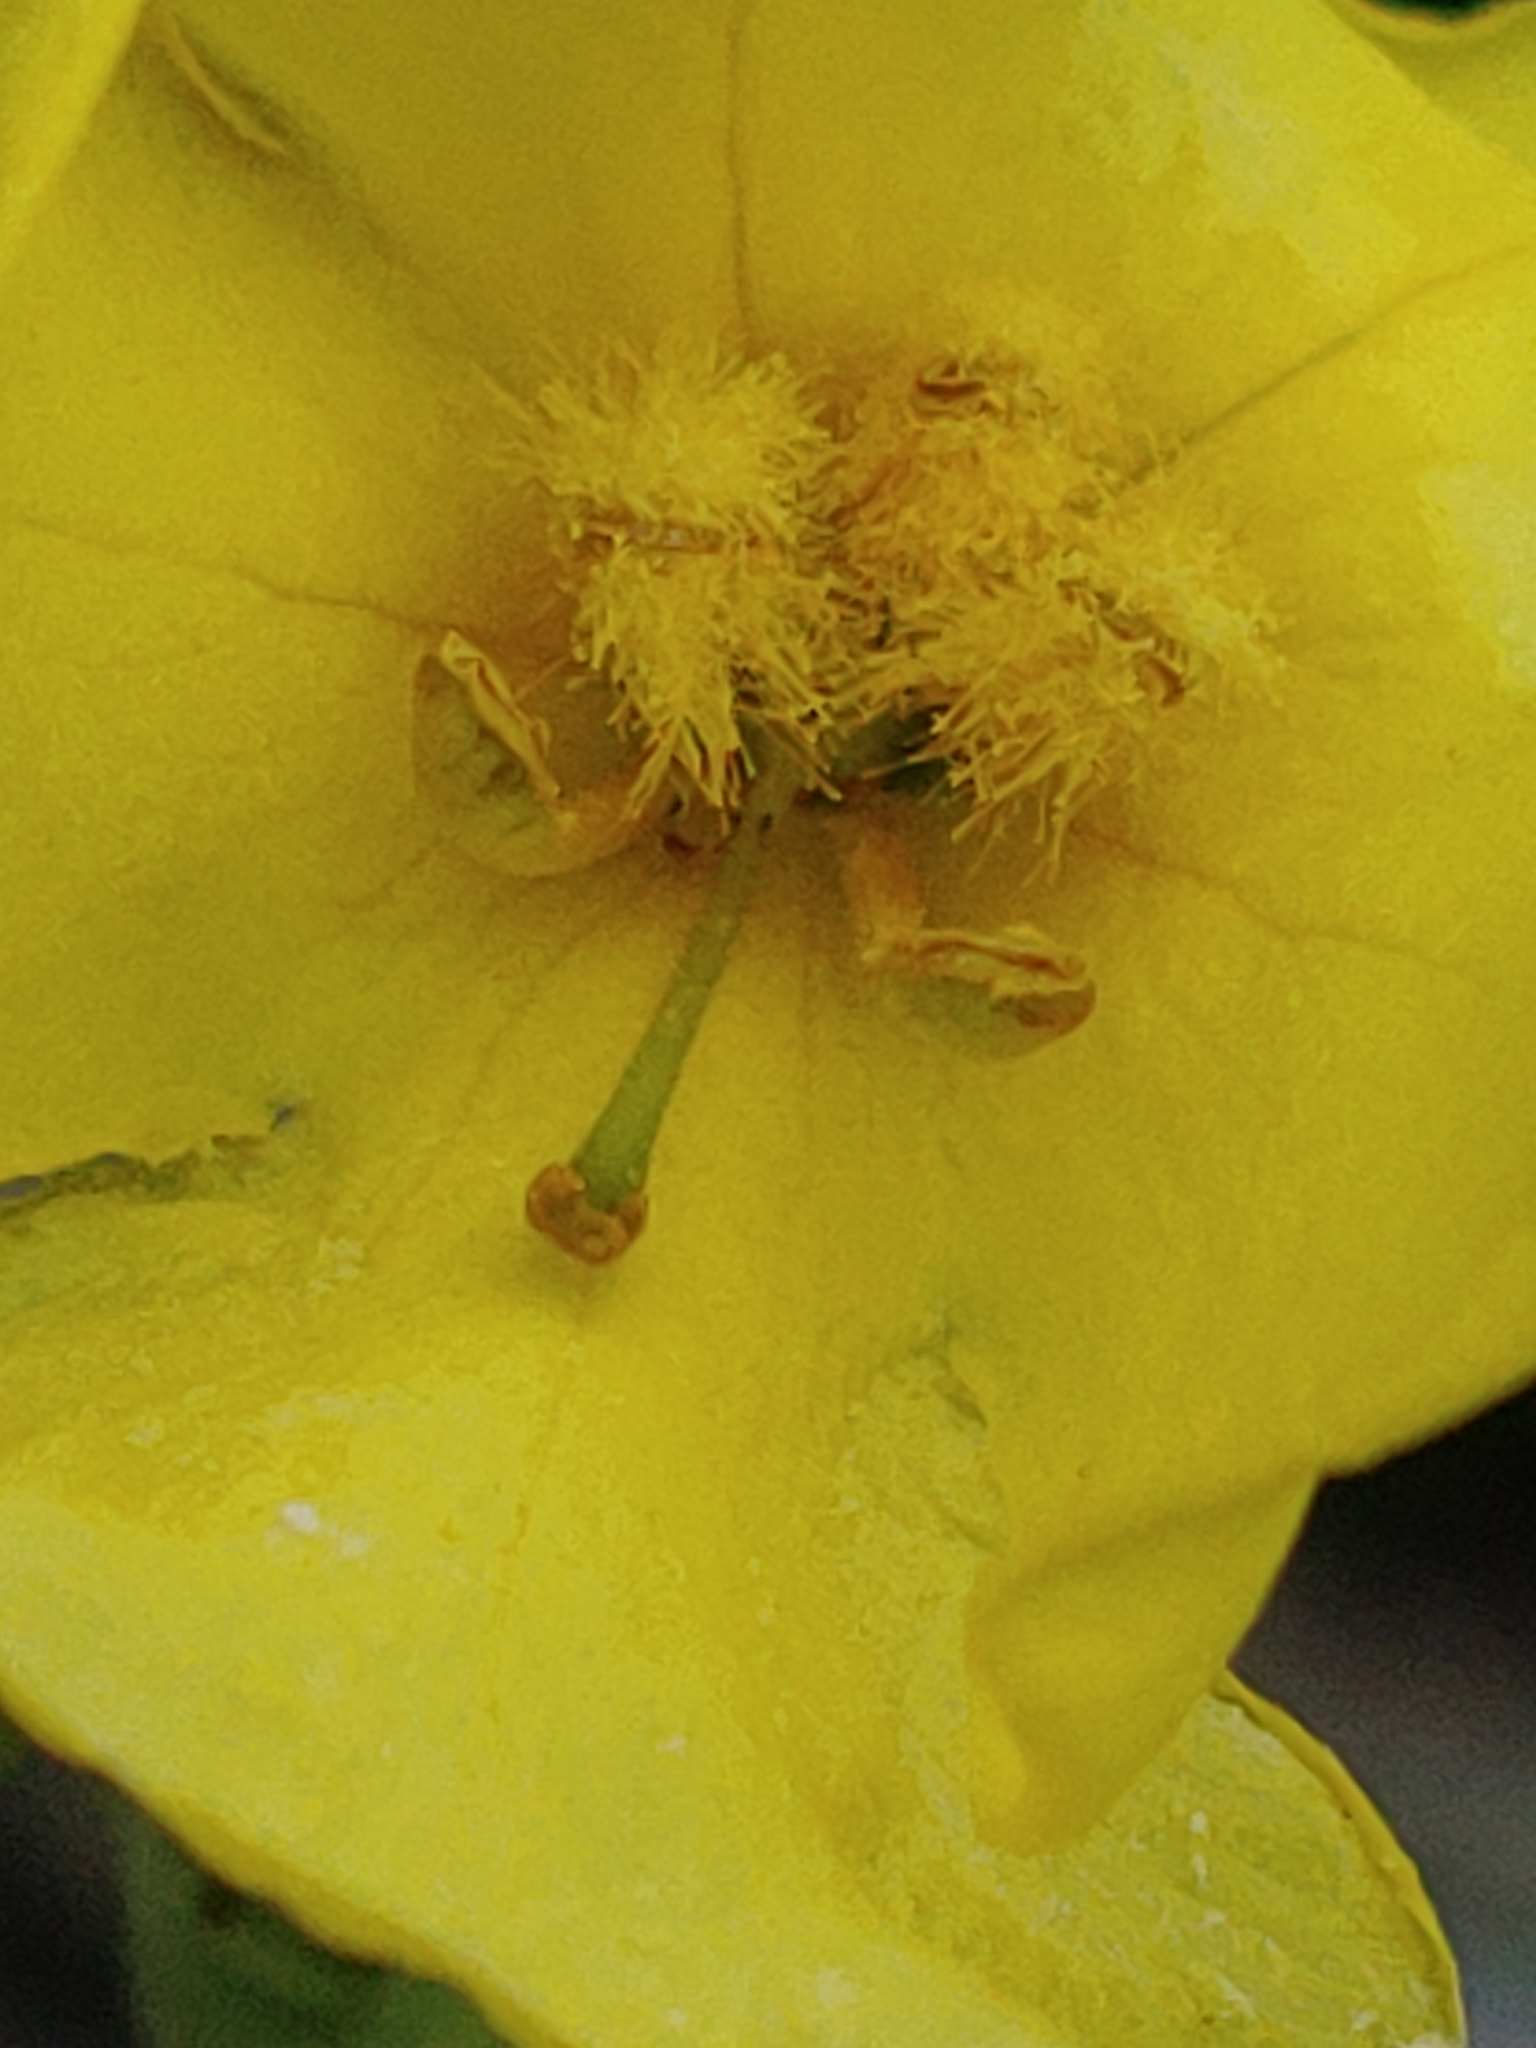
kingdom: Plantae
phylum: Tracheophyta
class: Magnoliopsida
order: Lamiales
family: Scrophulariaceae
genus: Verbascum
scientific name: Verbascum phlomoides
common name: Orange mullein
